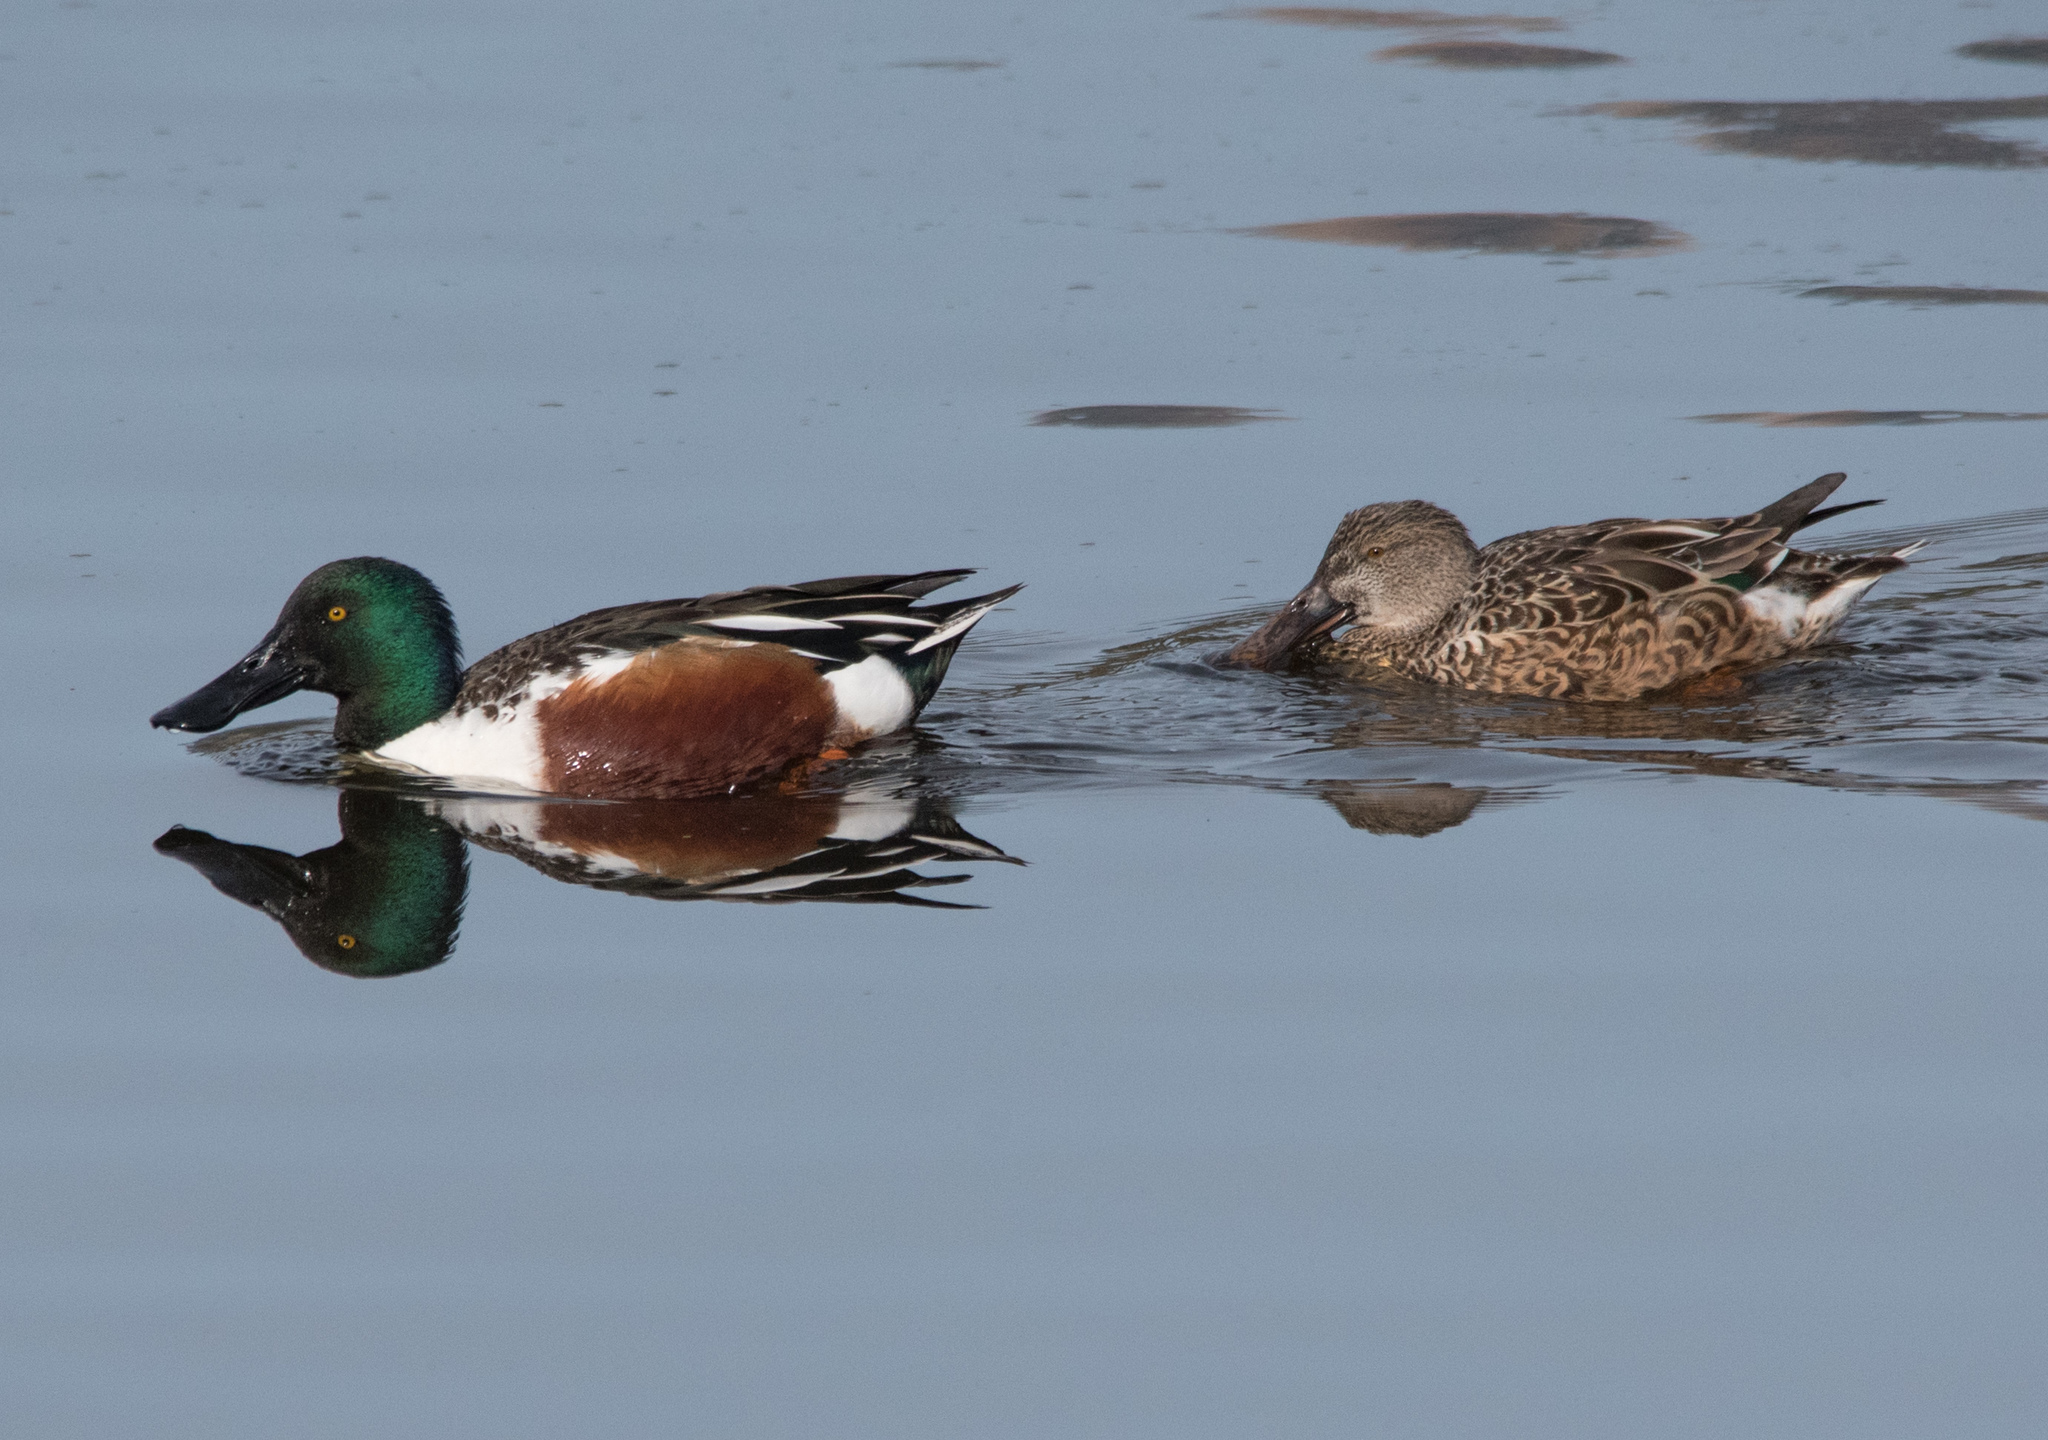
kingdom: Animalia
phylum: Chordata
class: Aves
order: Anseriformes
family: Anatidae
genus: Spatula
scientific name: Spatula clypeata
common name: Northern shoveler
